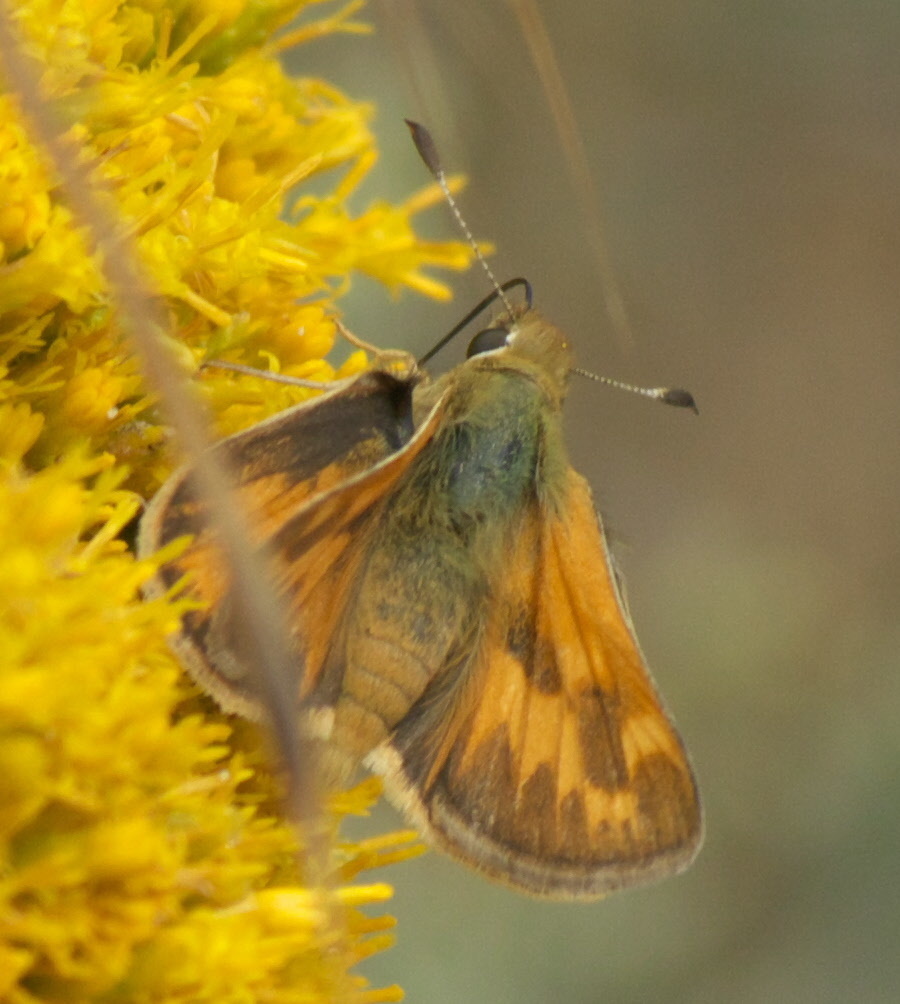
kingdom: Animalia
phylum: Arthropoda
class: Insecta
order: Lepidoptera
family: Hesperiidae
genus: Ochlodes
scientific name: Ochlodes sylvanoides
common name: Woodland skipper
